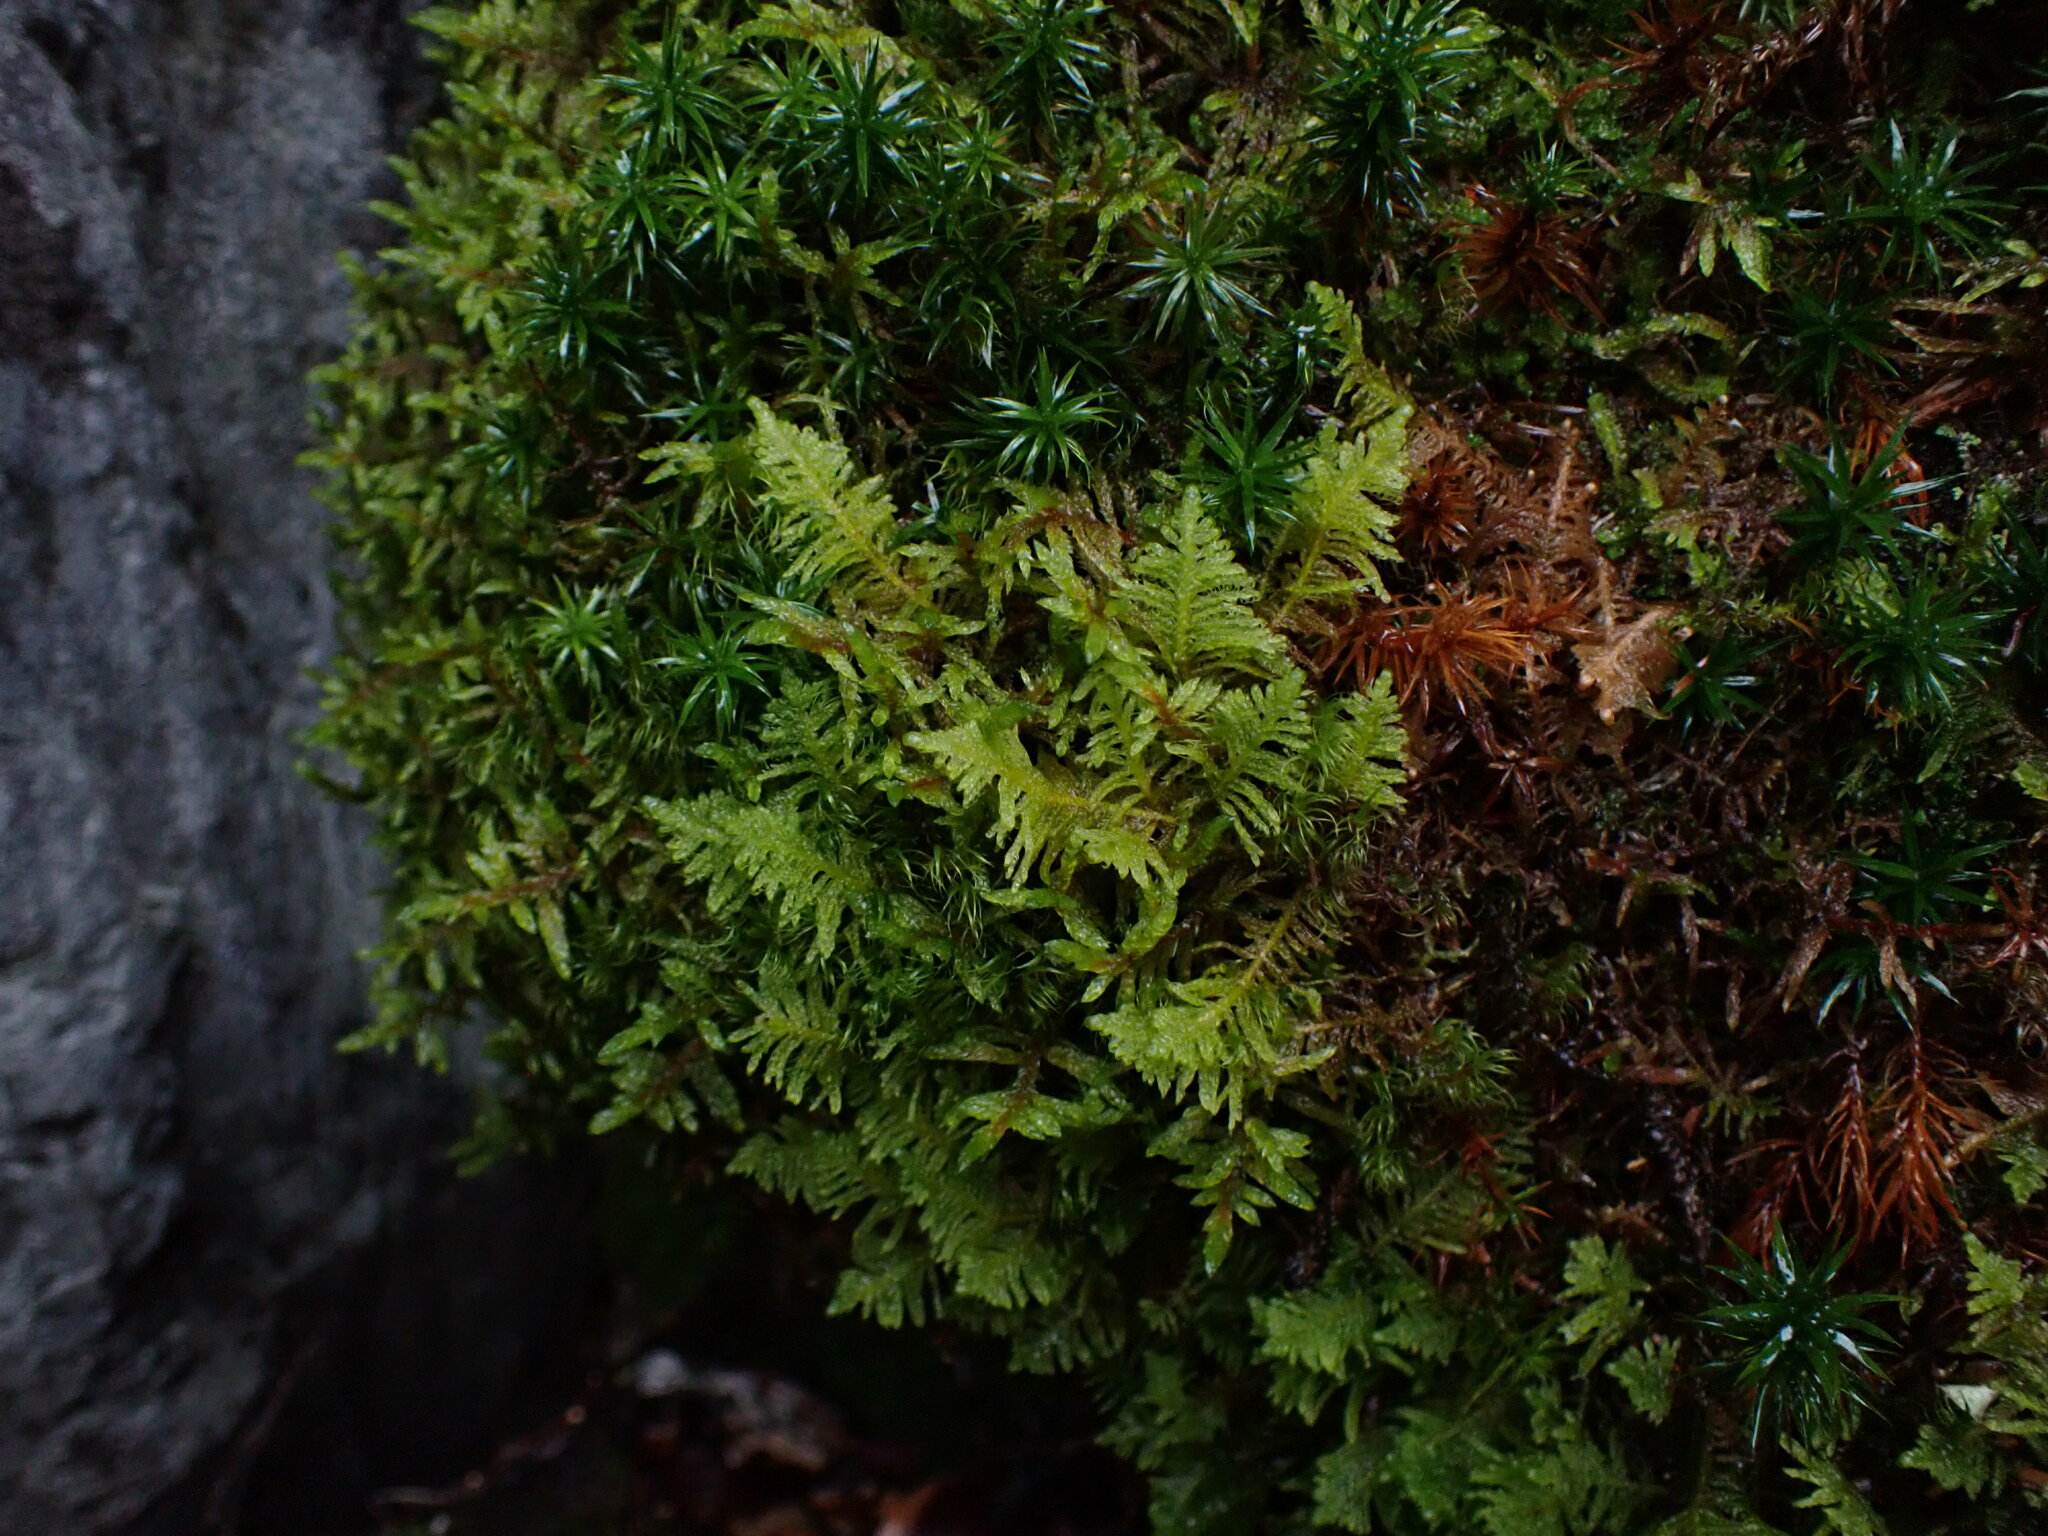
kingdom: Plantae
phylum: Bryophyta
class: Bryopsida
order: Hypnales
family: Pylaisiaceae
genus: Ptilium
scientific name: Ptilium crista-castrensis
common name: Knight's plume moss
